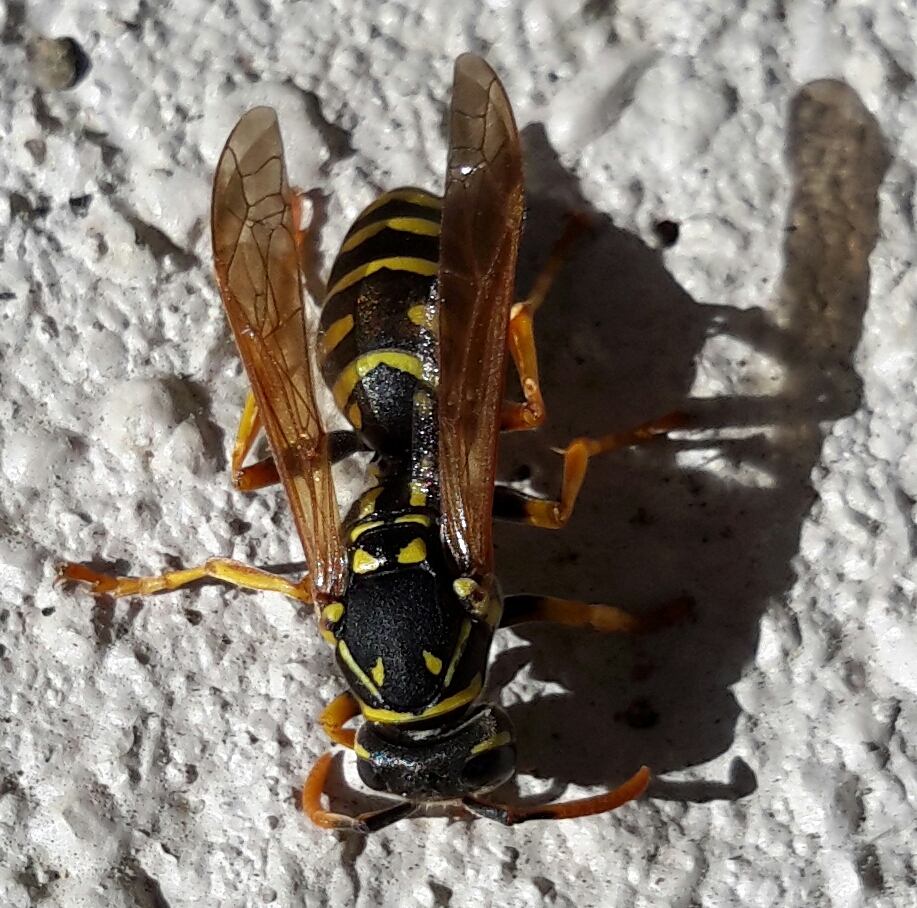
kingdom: Animalia
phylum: Arthropoda
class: Insecta
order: Hymenoptera
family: Eumenidae
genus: Polistes
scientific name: Polistes dominula
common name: Paper wasp
